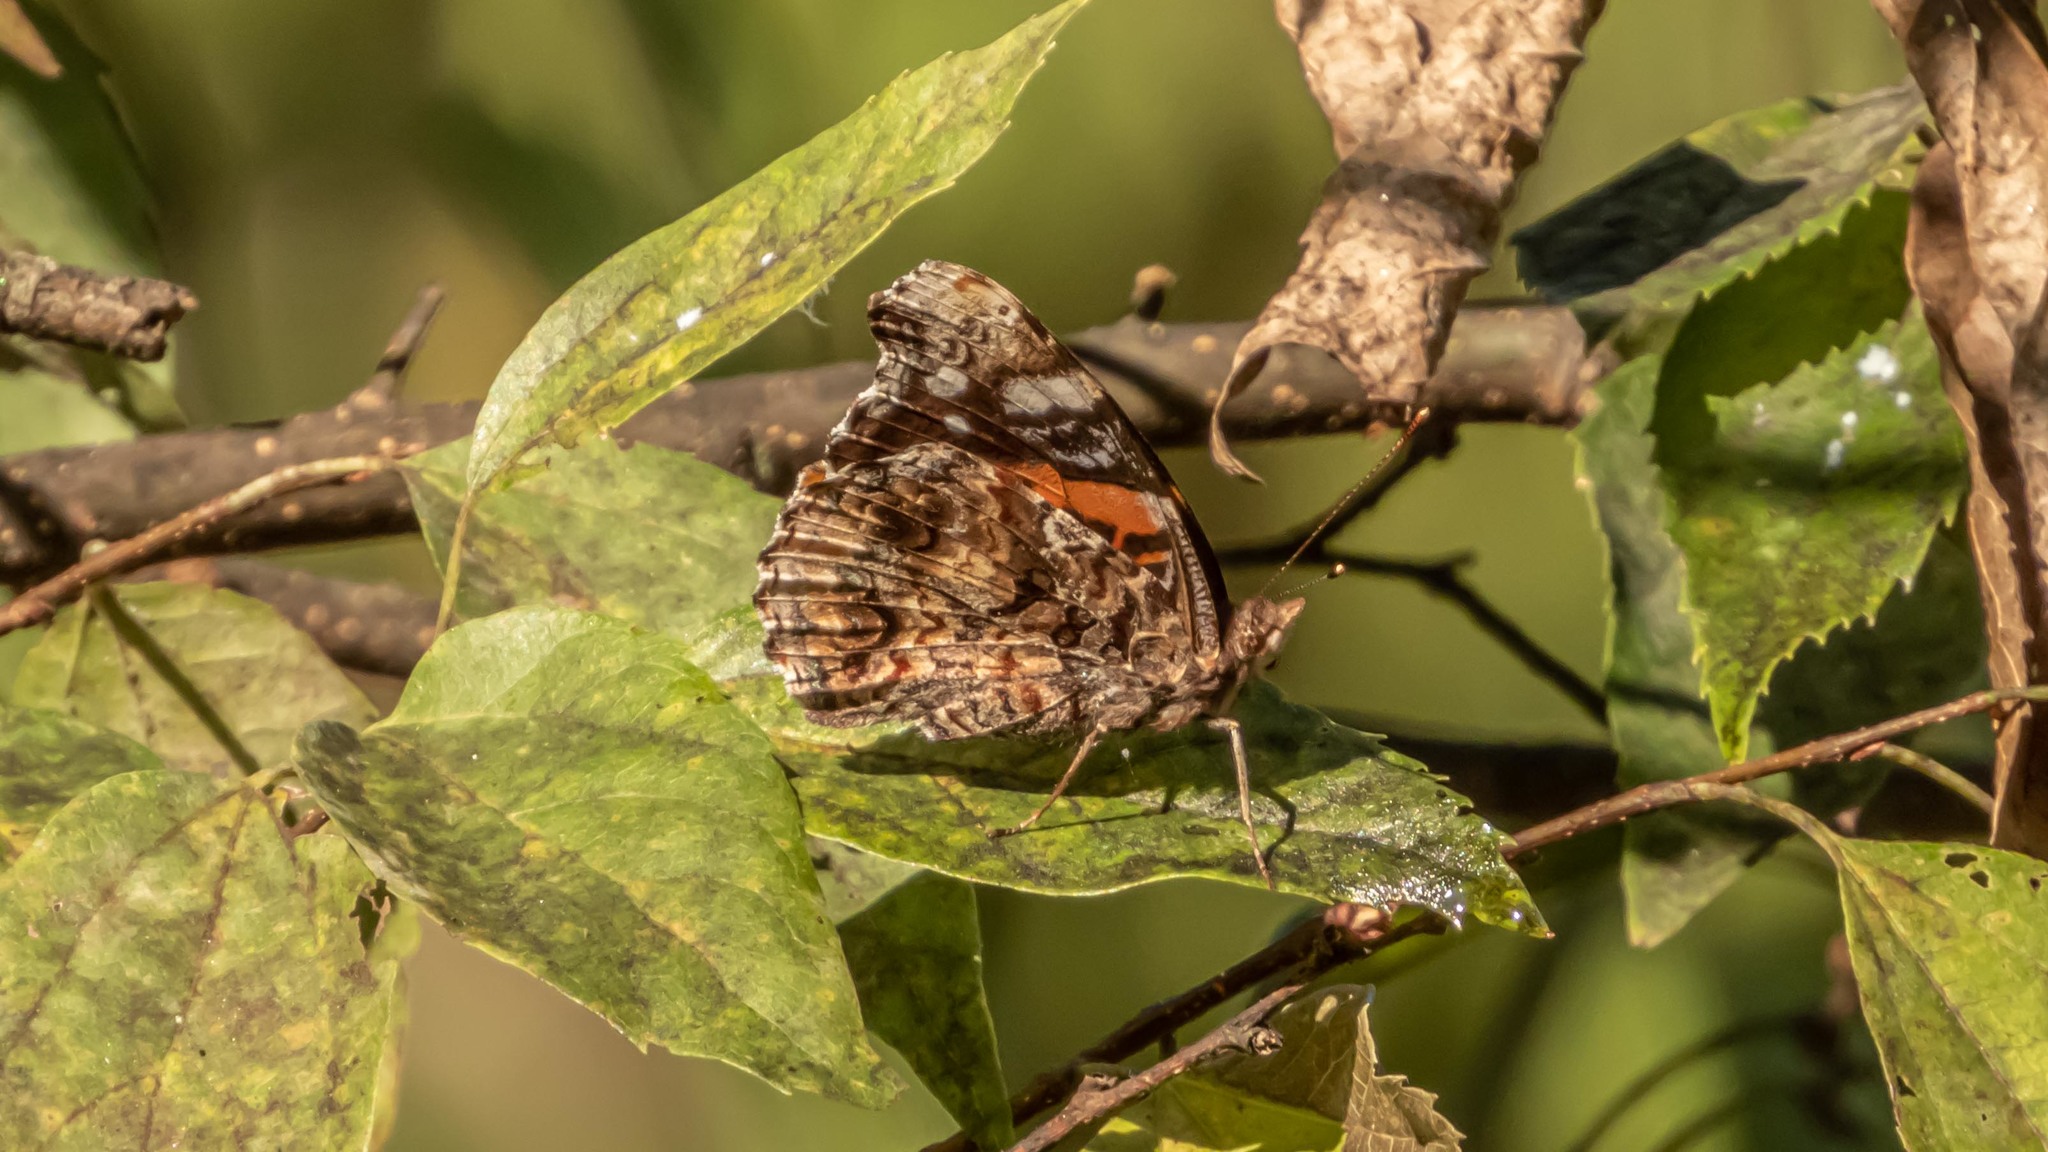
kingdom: Animalia
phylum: Arthropoda
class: Insecta
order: Lepidoptera
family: Nymphalidae
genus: Vanessa
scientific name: Vanessa atalanta
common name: Red admiral
